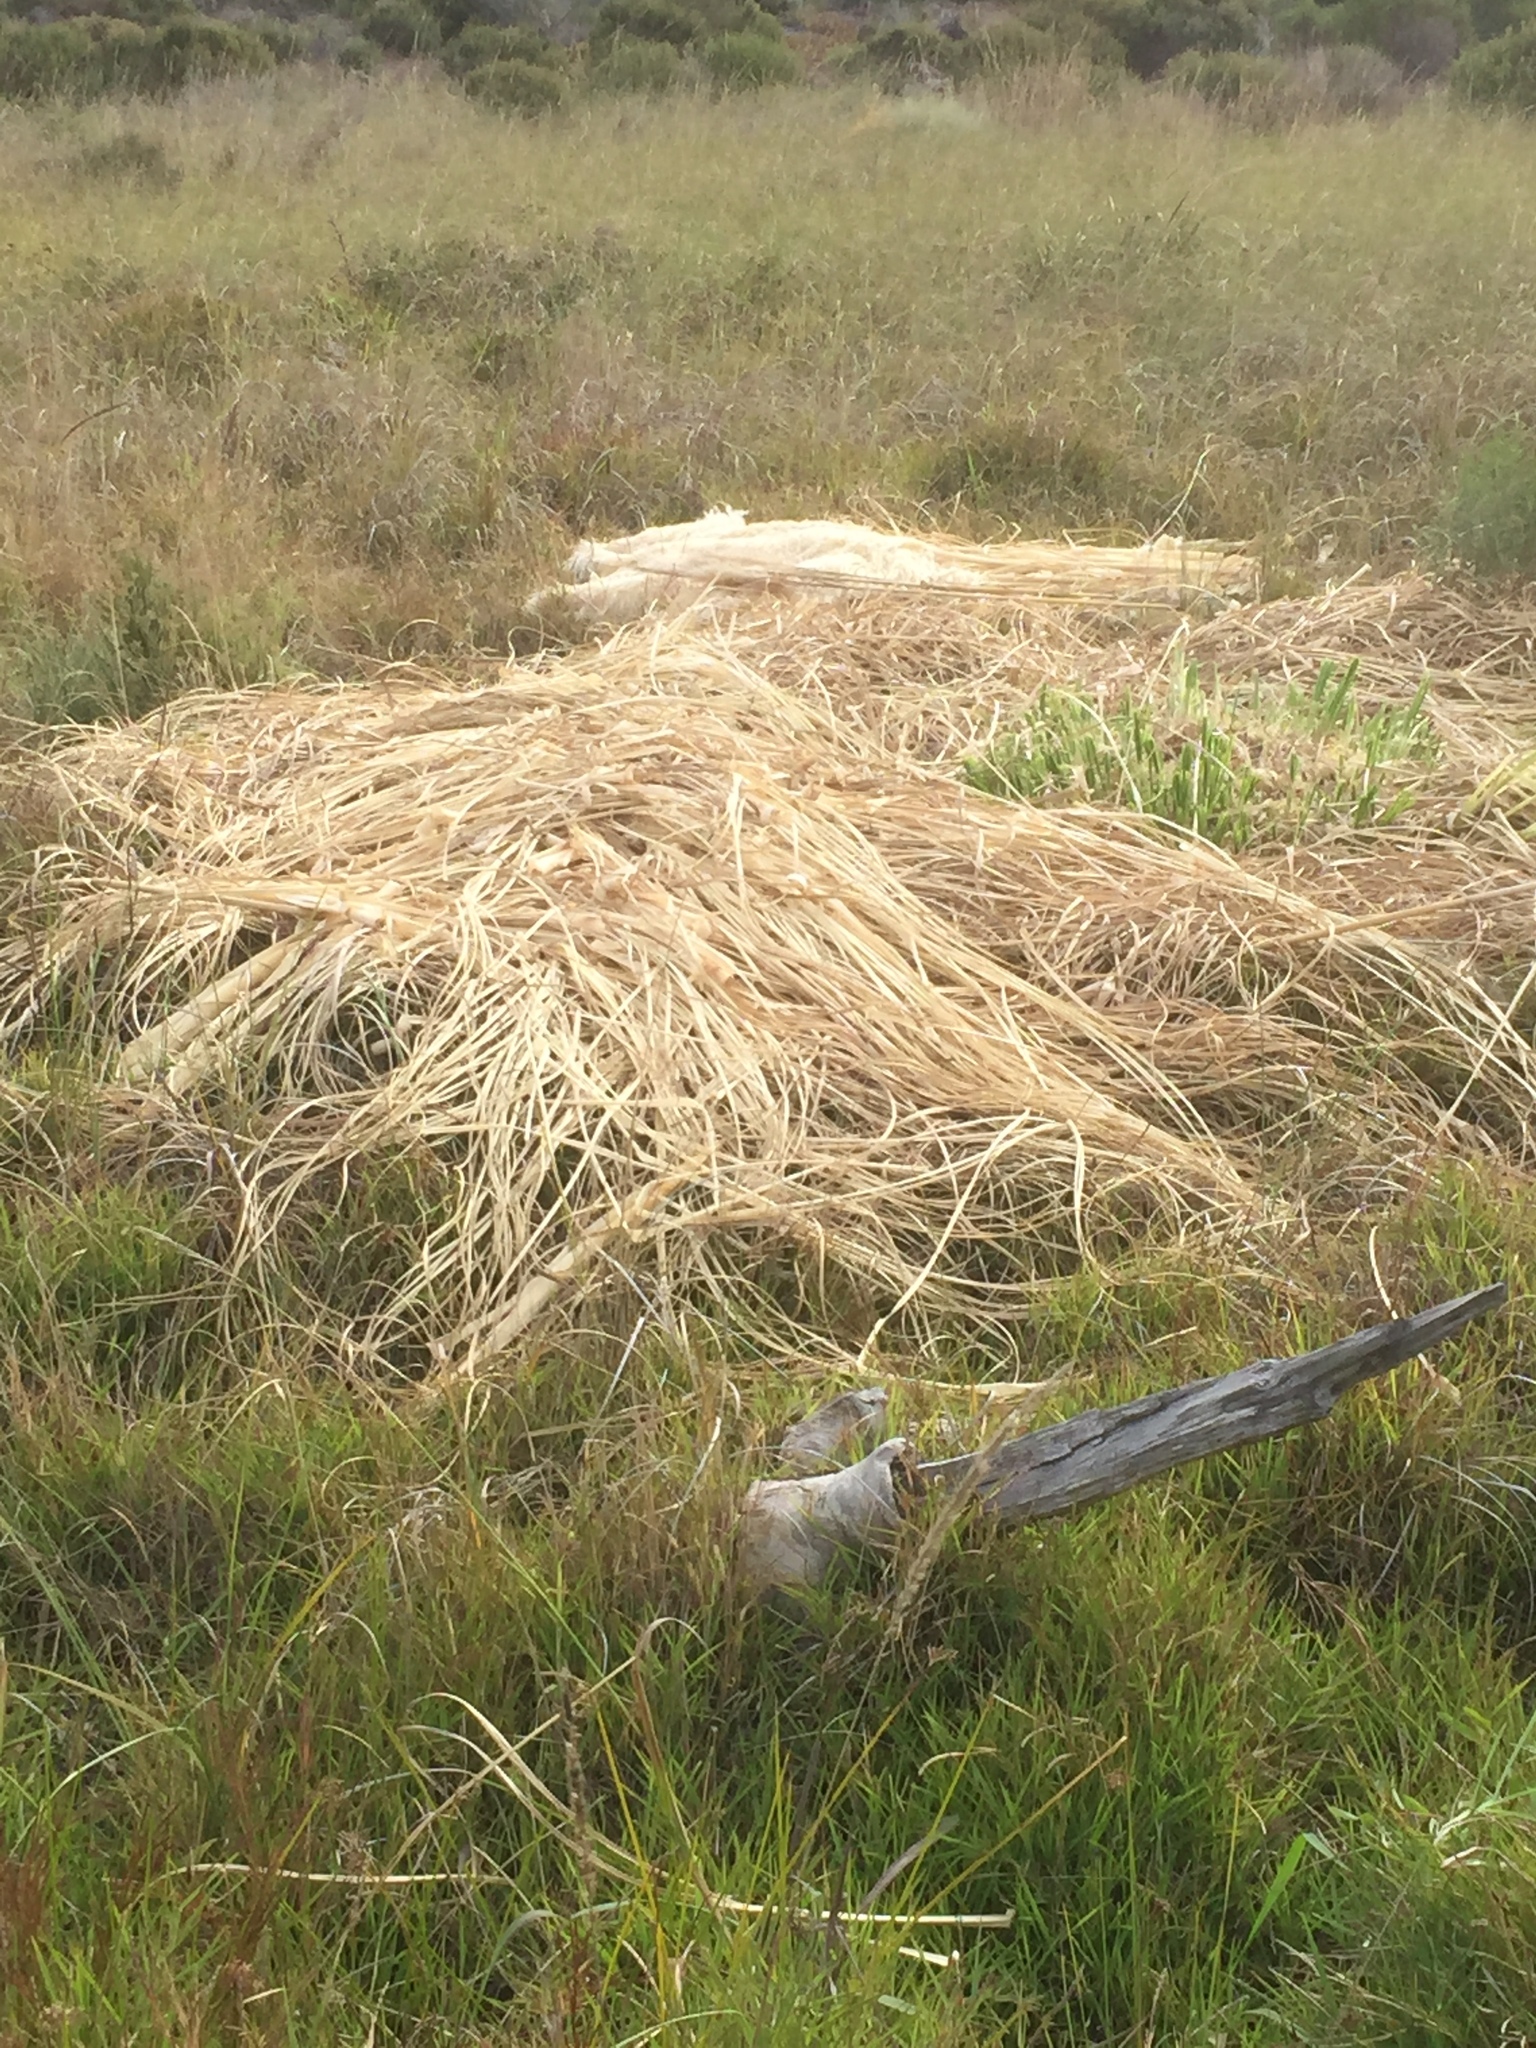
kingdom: Plantae
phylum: Tracheophyta
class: Liliopsida
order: Poales
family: Poaceae
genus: Cortaderia
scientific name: Cortaderia selloana
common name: Uruguayan pampas grass
